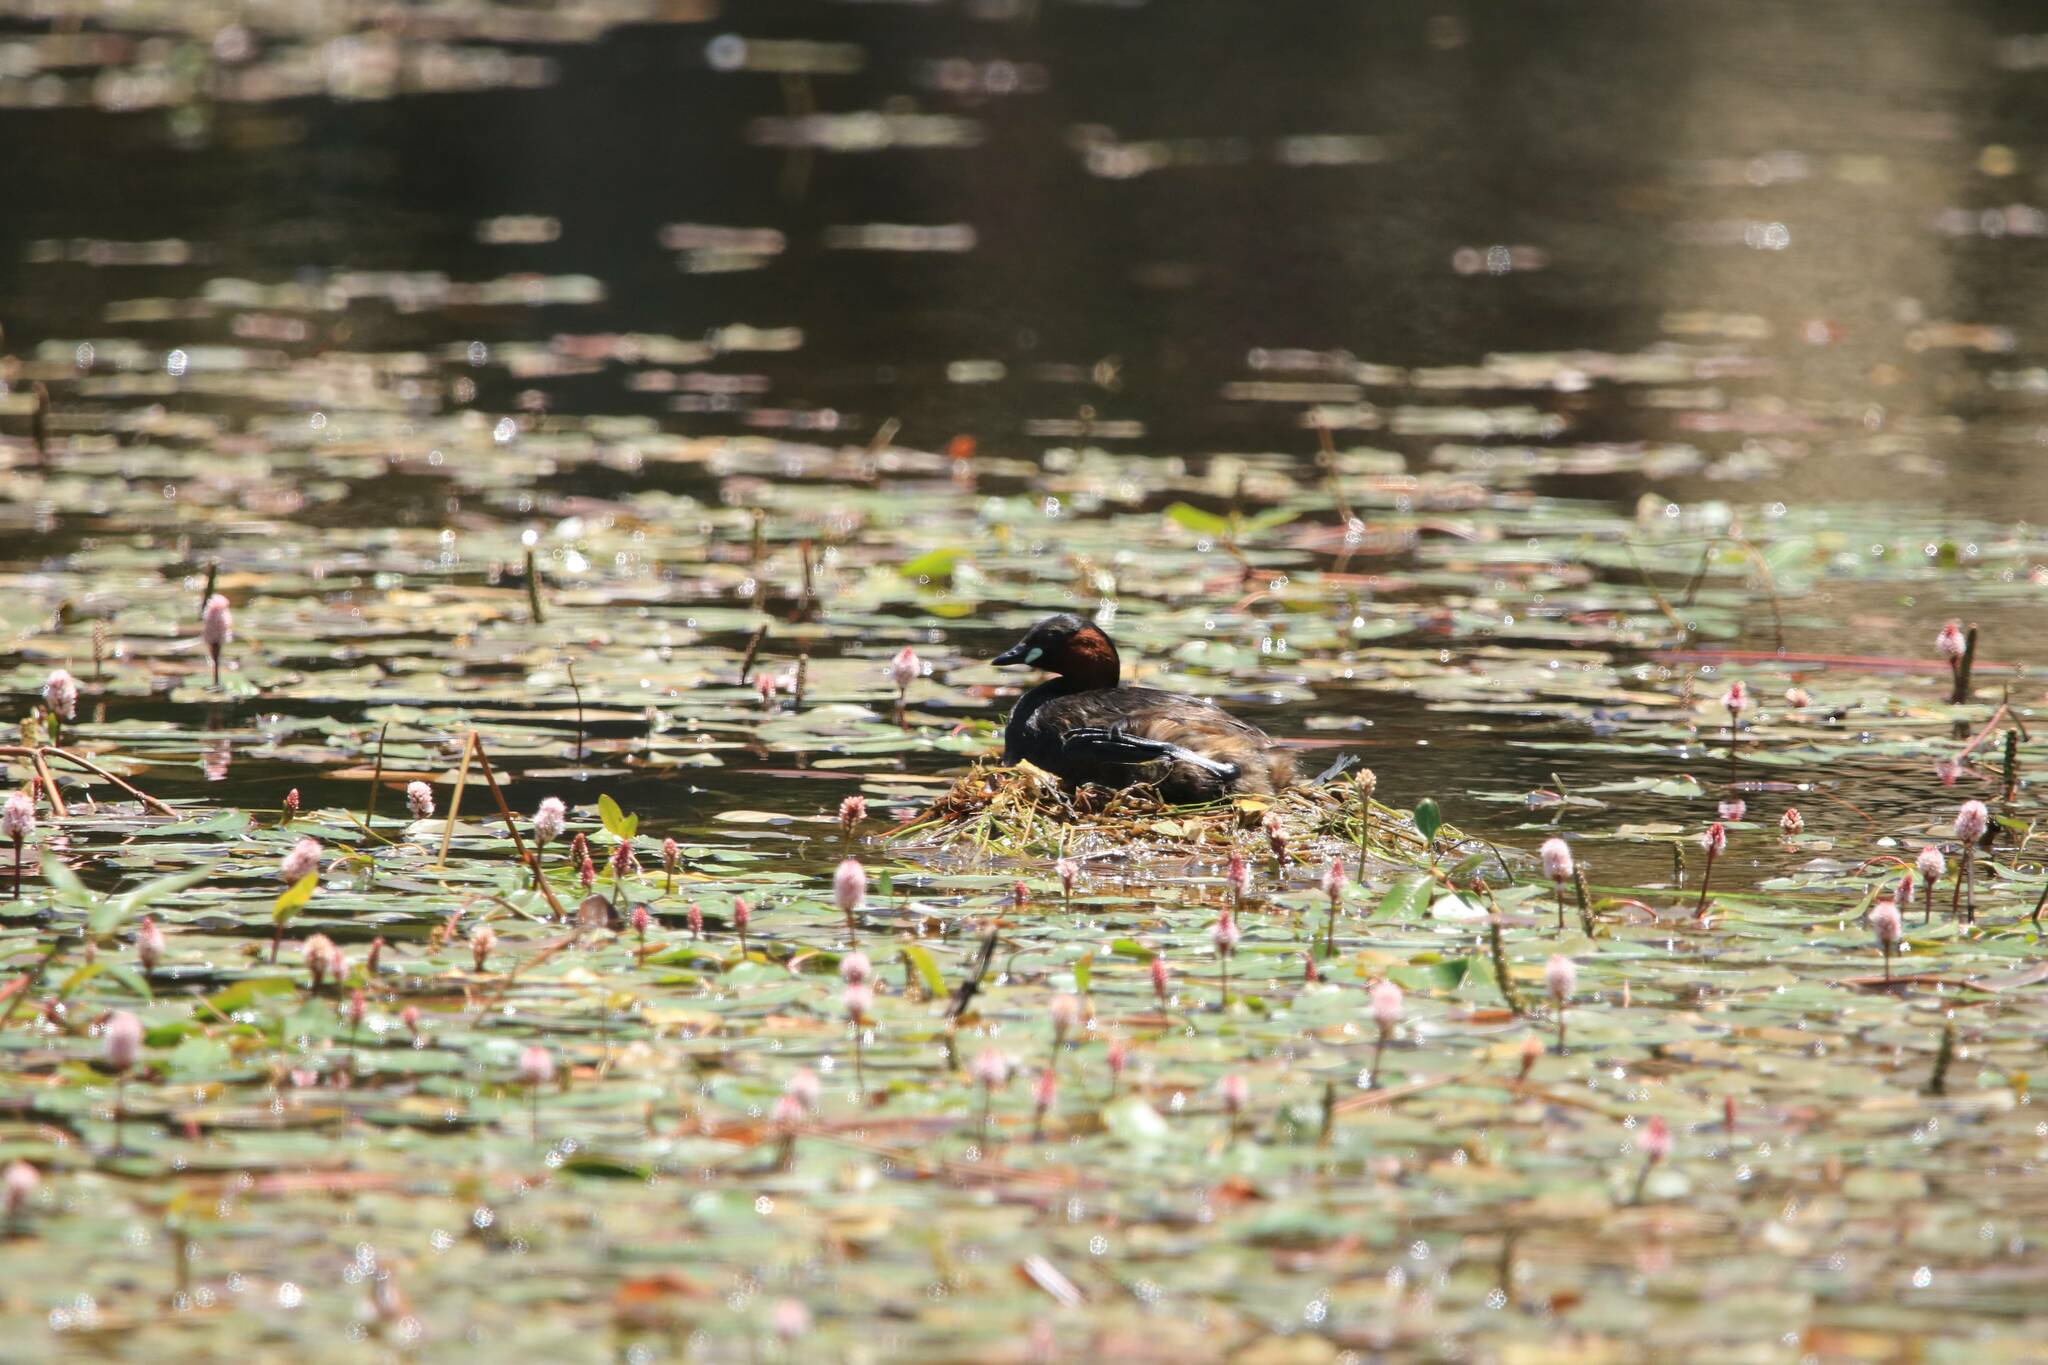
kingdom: Animalia
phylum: Chordata
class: Aves
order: Podicipediformes
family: Podicipedidae
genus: Tachybaptus
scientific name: Tachybaptus ruficollis
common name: Little grebe
